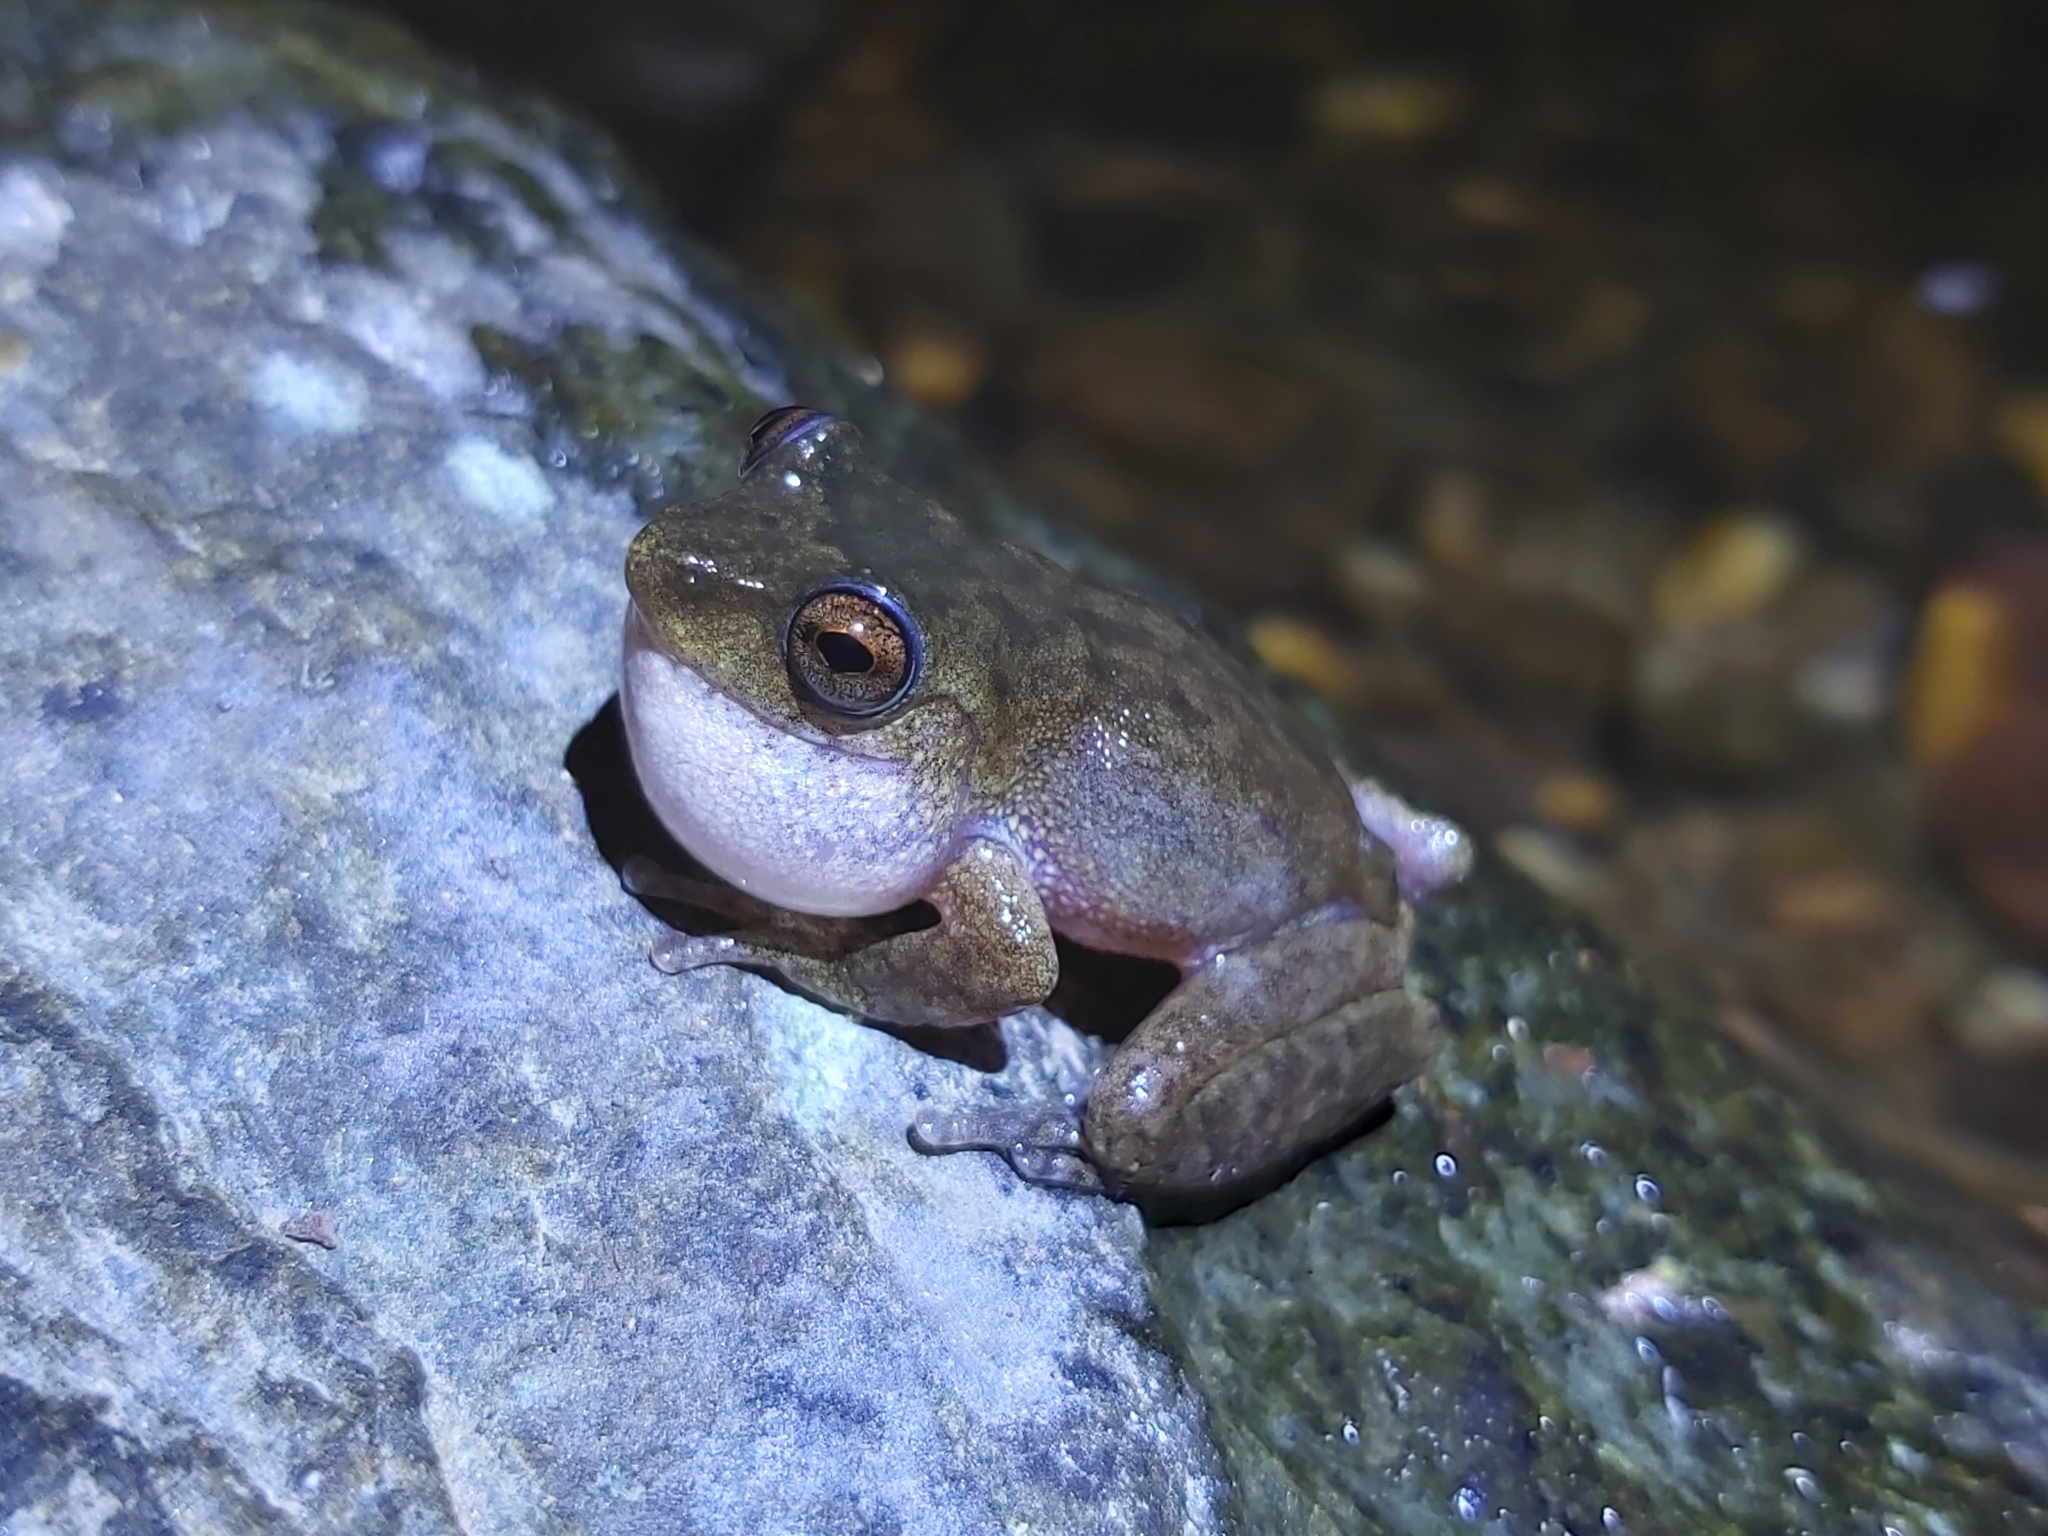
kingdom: Animalia
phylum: Chordata
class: Amphibia
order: Anura
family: Pelodryadidae
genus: Ranoidea
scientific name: Ranoidea rheocola
